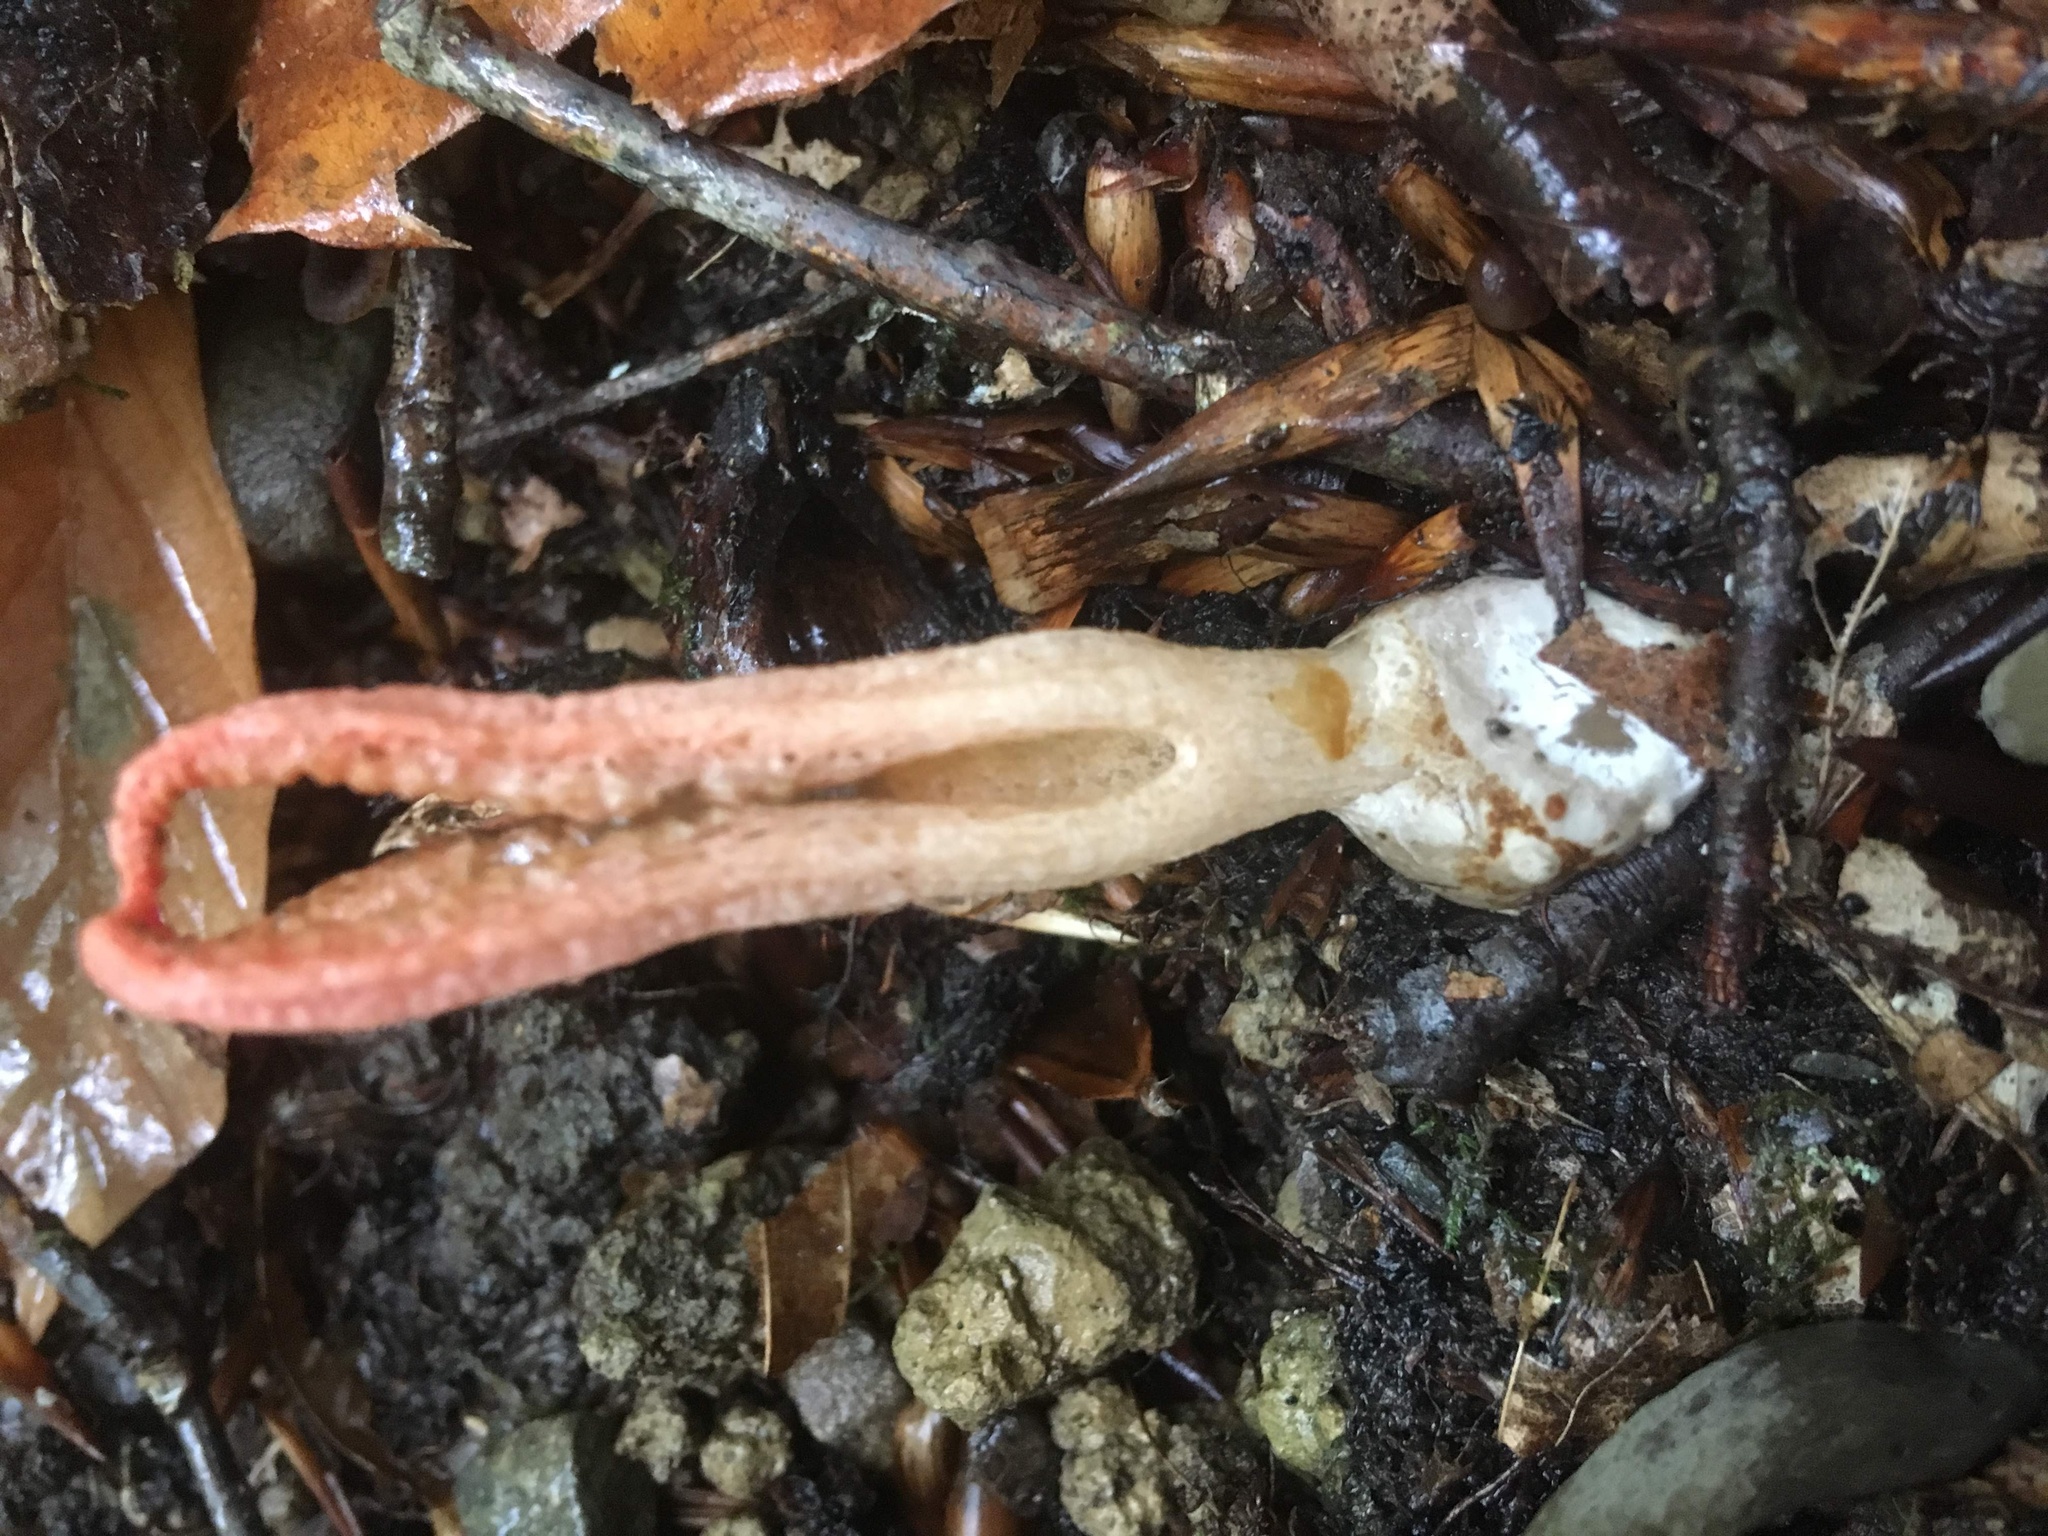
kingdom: Fungi
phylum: Basidiomycota
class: Agaricomycetes
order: Phallales
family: Phallaceae
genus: Pseudocolus
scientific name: Pseudocolus fusiformis
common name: Stinky squid
